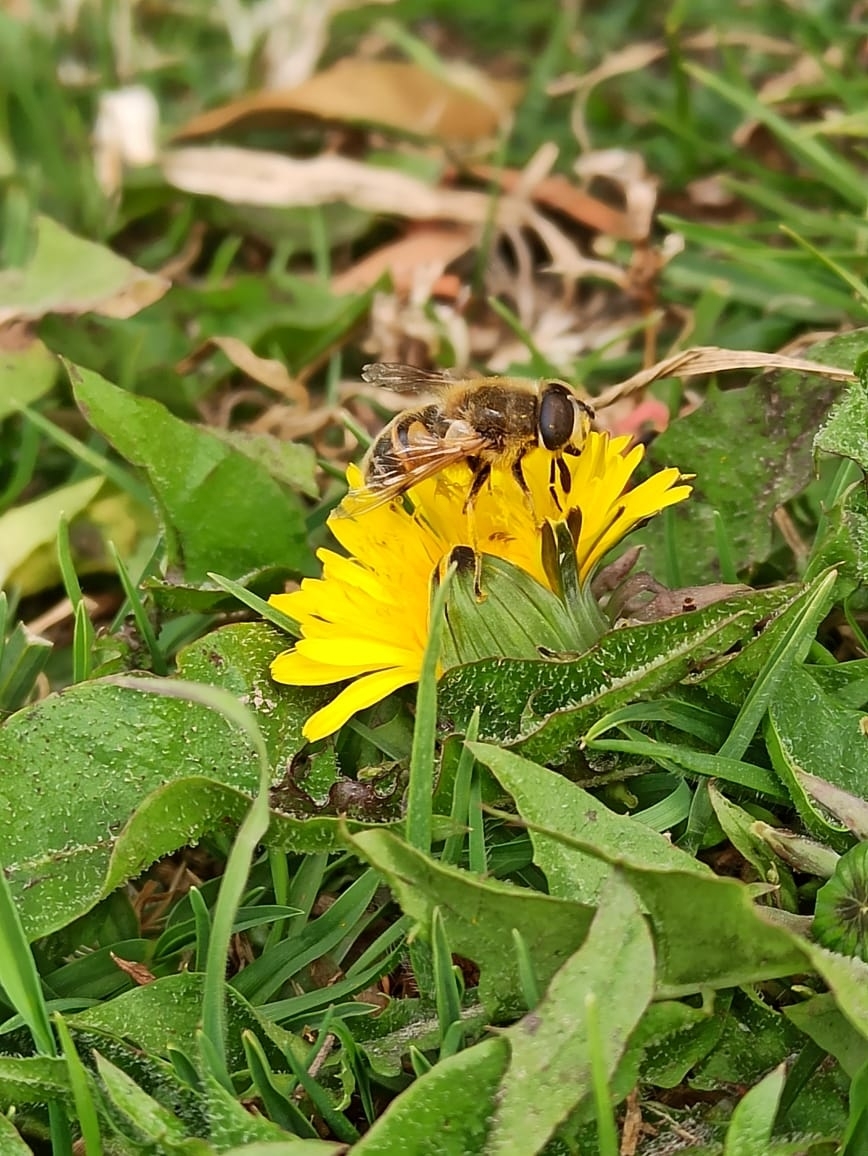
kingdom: Animalia
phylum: Arthropoda
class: Insecta
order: Diptera
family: Syrphidae
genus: Eristalis
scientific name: Eristalis tenax
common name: Drone fly
